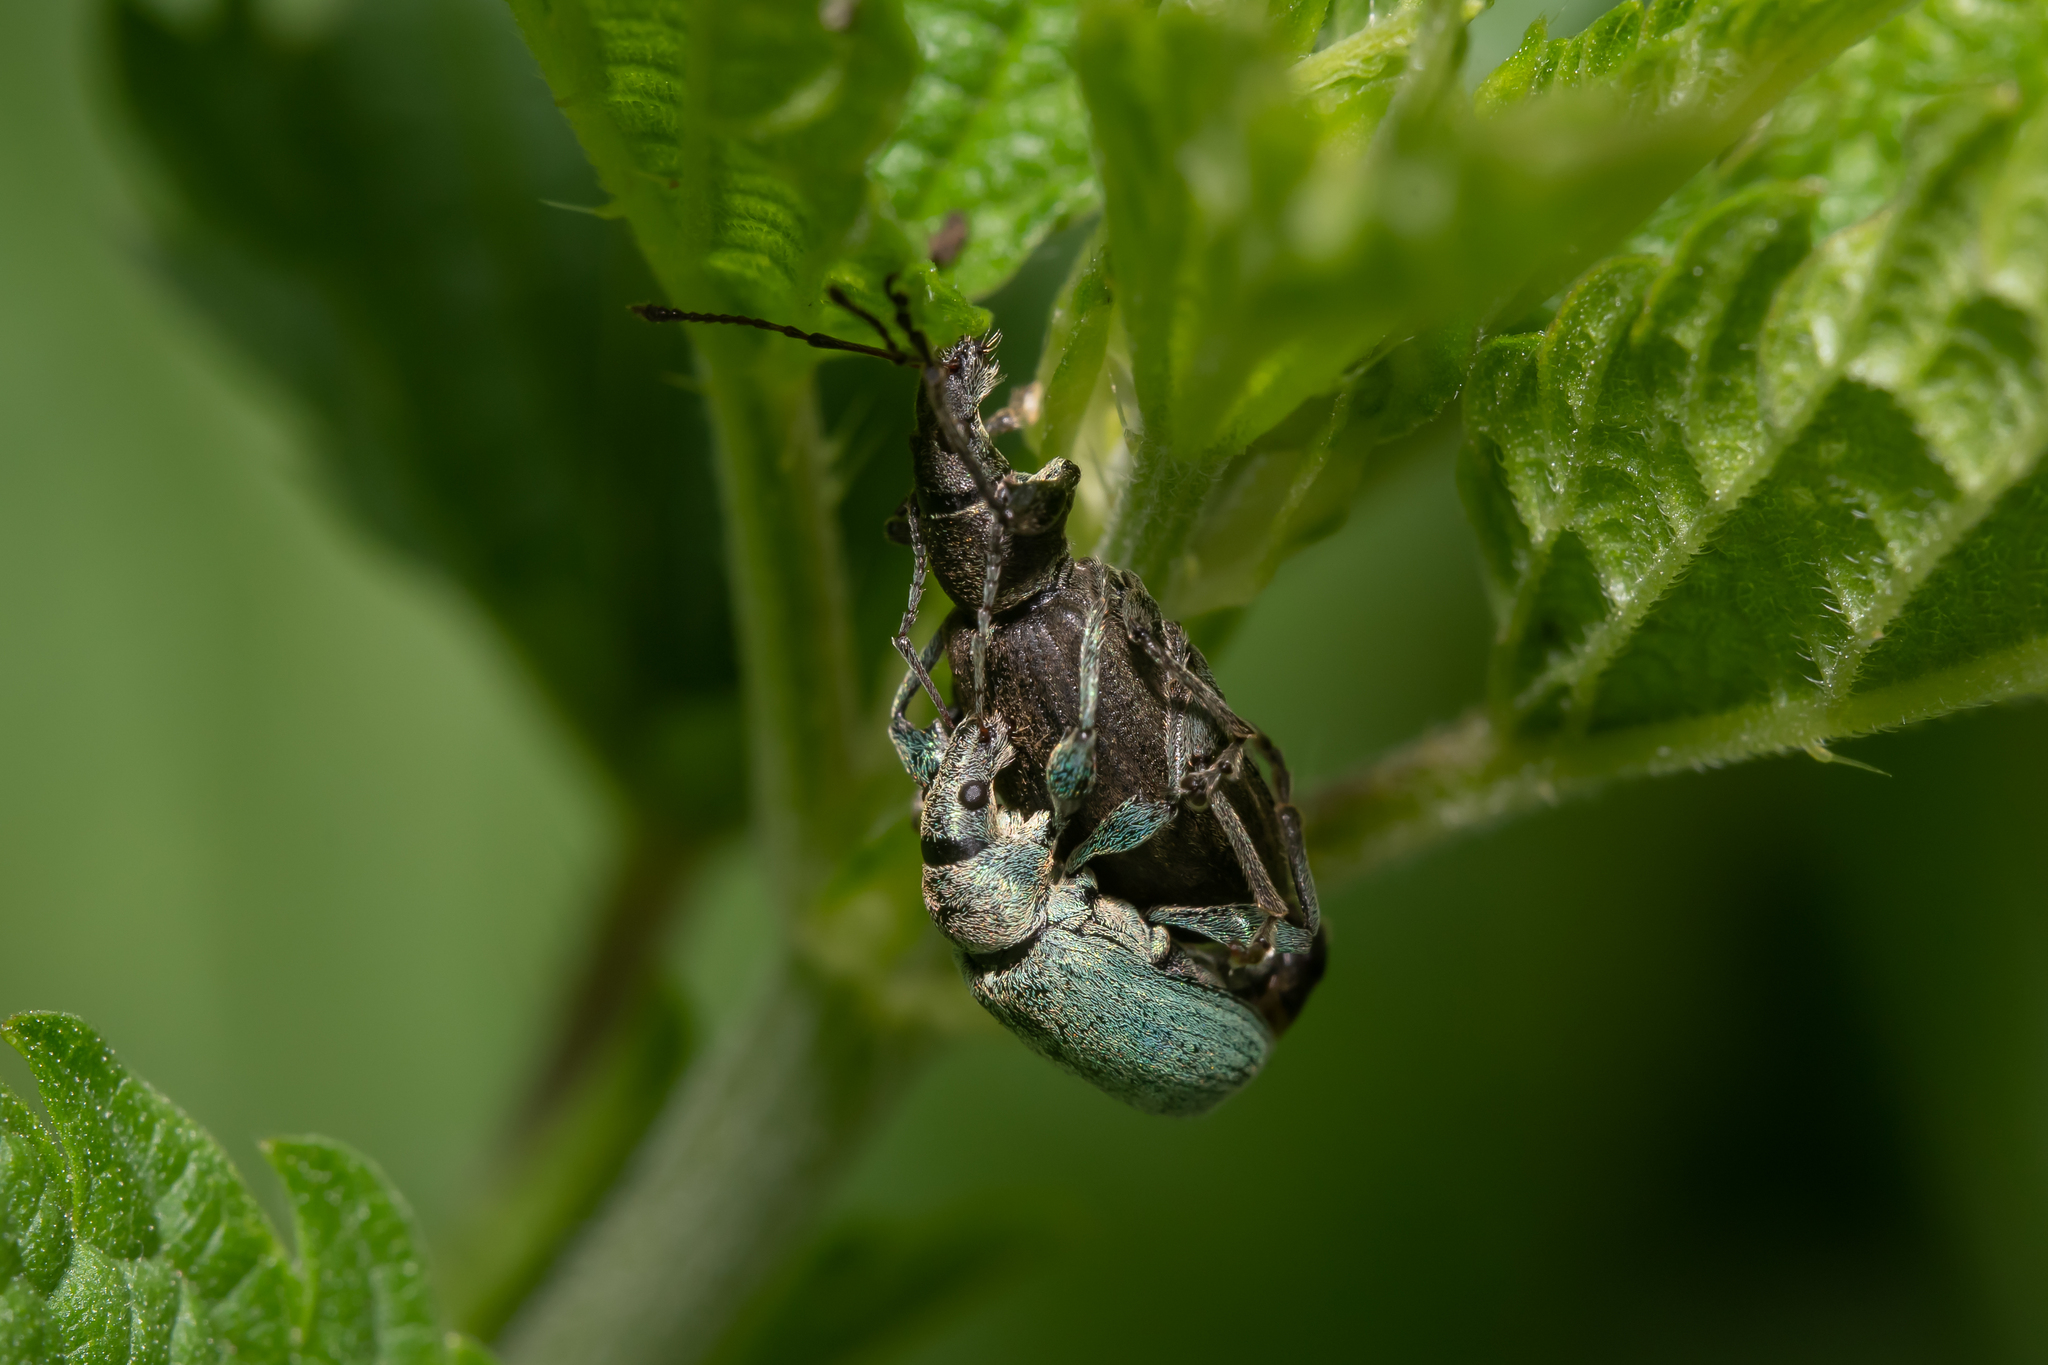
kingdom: Animalia
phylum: Arthropoda
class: Insecta
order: Coleoptera
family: Curculionidae
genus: Phyllobius
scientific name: Phyllobius pomaceus
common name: Green nettle weevil
